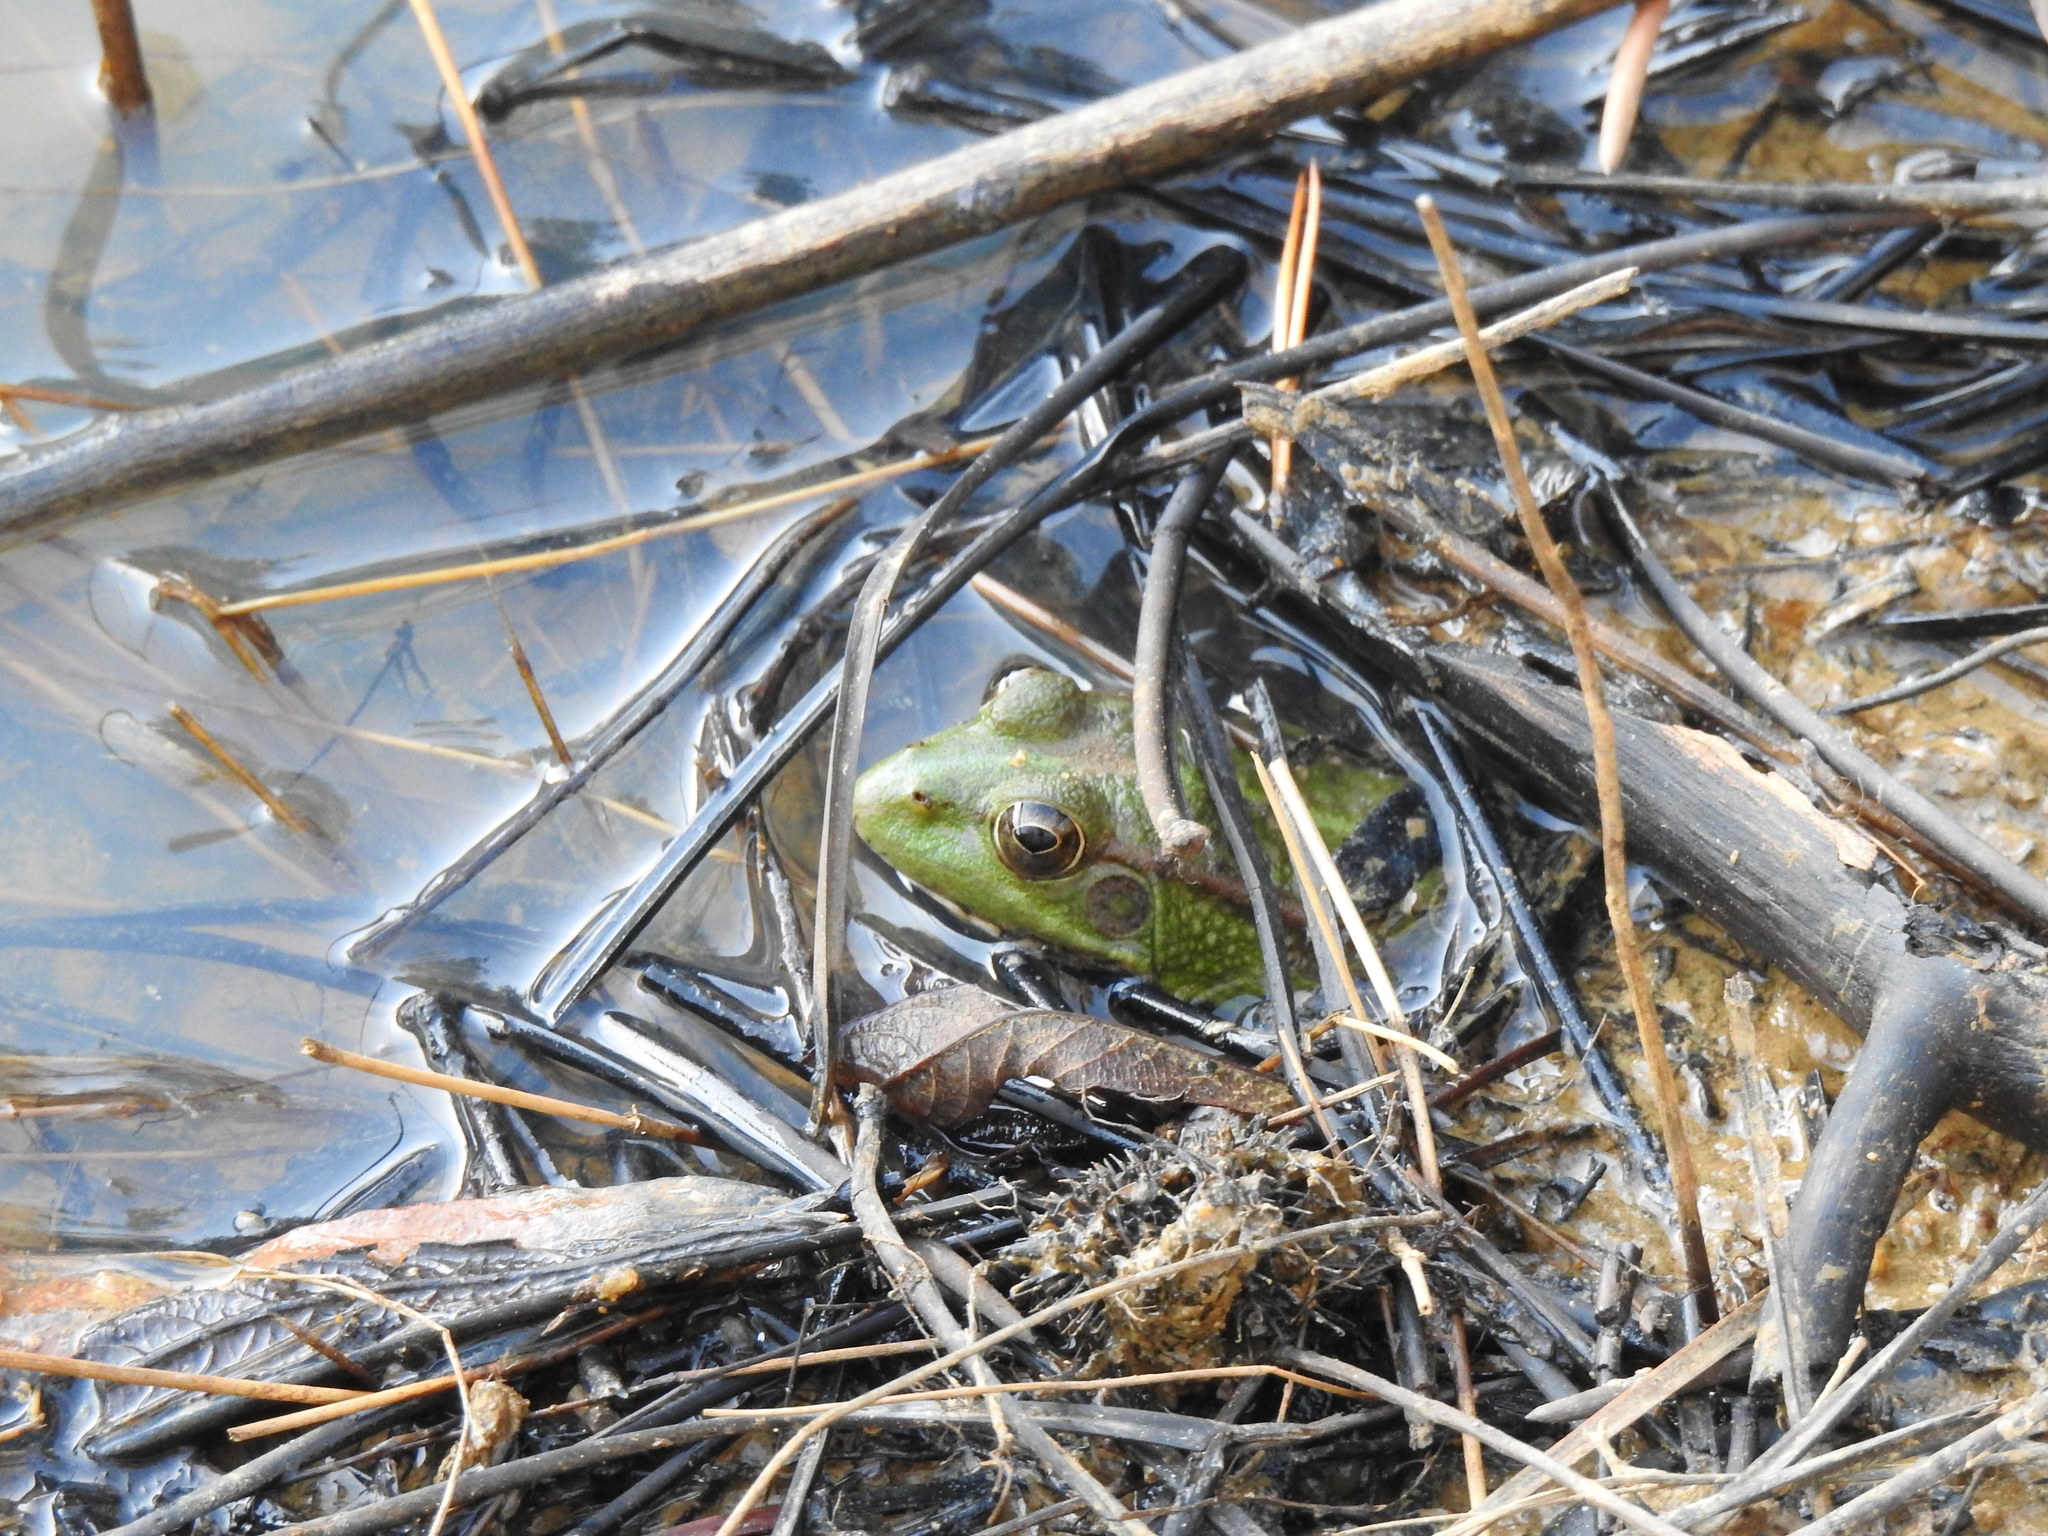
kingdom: Animalia
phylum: Chordata
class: Amphibia
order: Anura
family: Ranidae
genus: Pelophylax
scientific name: Pelophylax perezi
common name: Perez's frog
